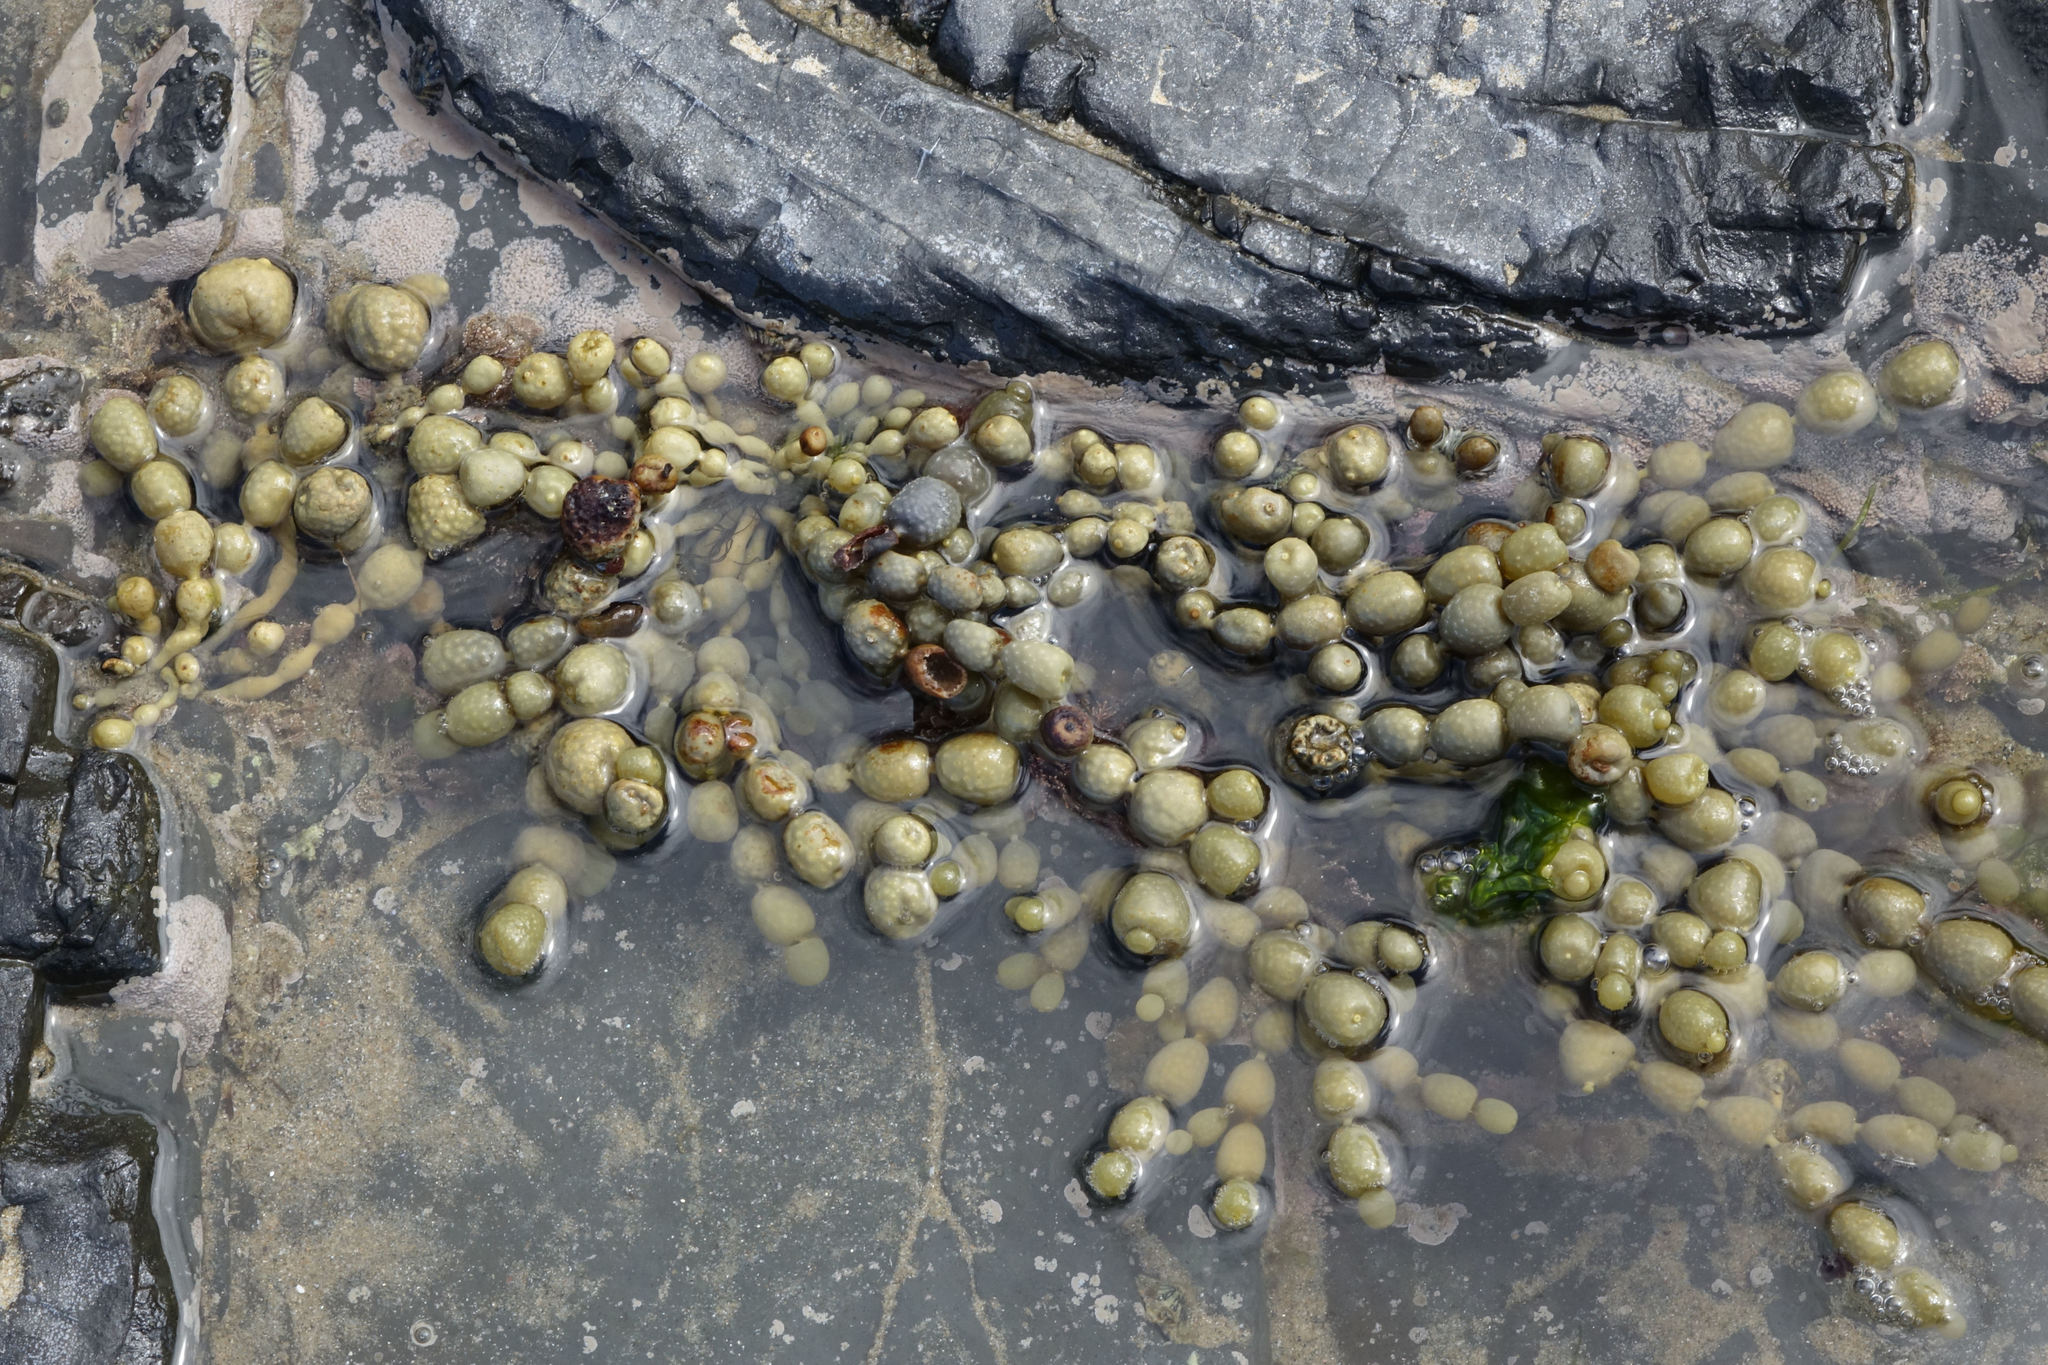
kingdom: Chromista
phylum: Ochrophyta
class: Phaeophyceae
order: Fucales
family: Hormosiraceae
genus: Hormosira
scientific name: Hormosira banksii
